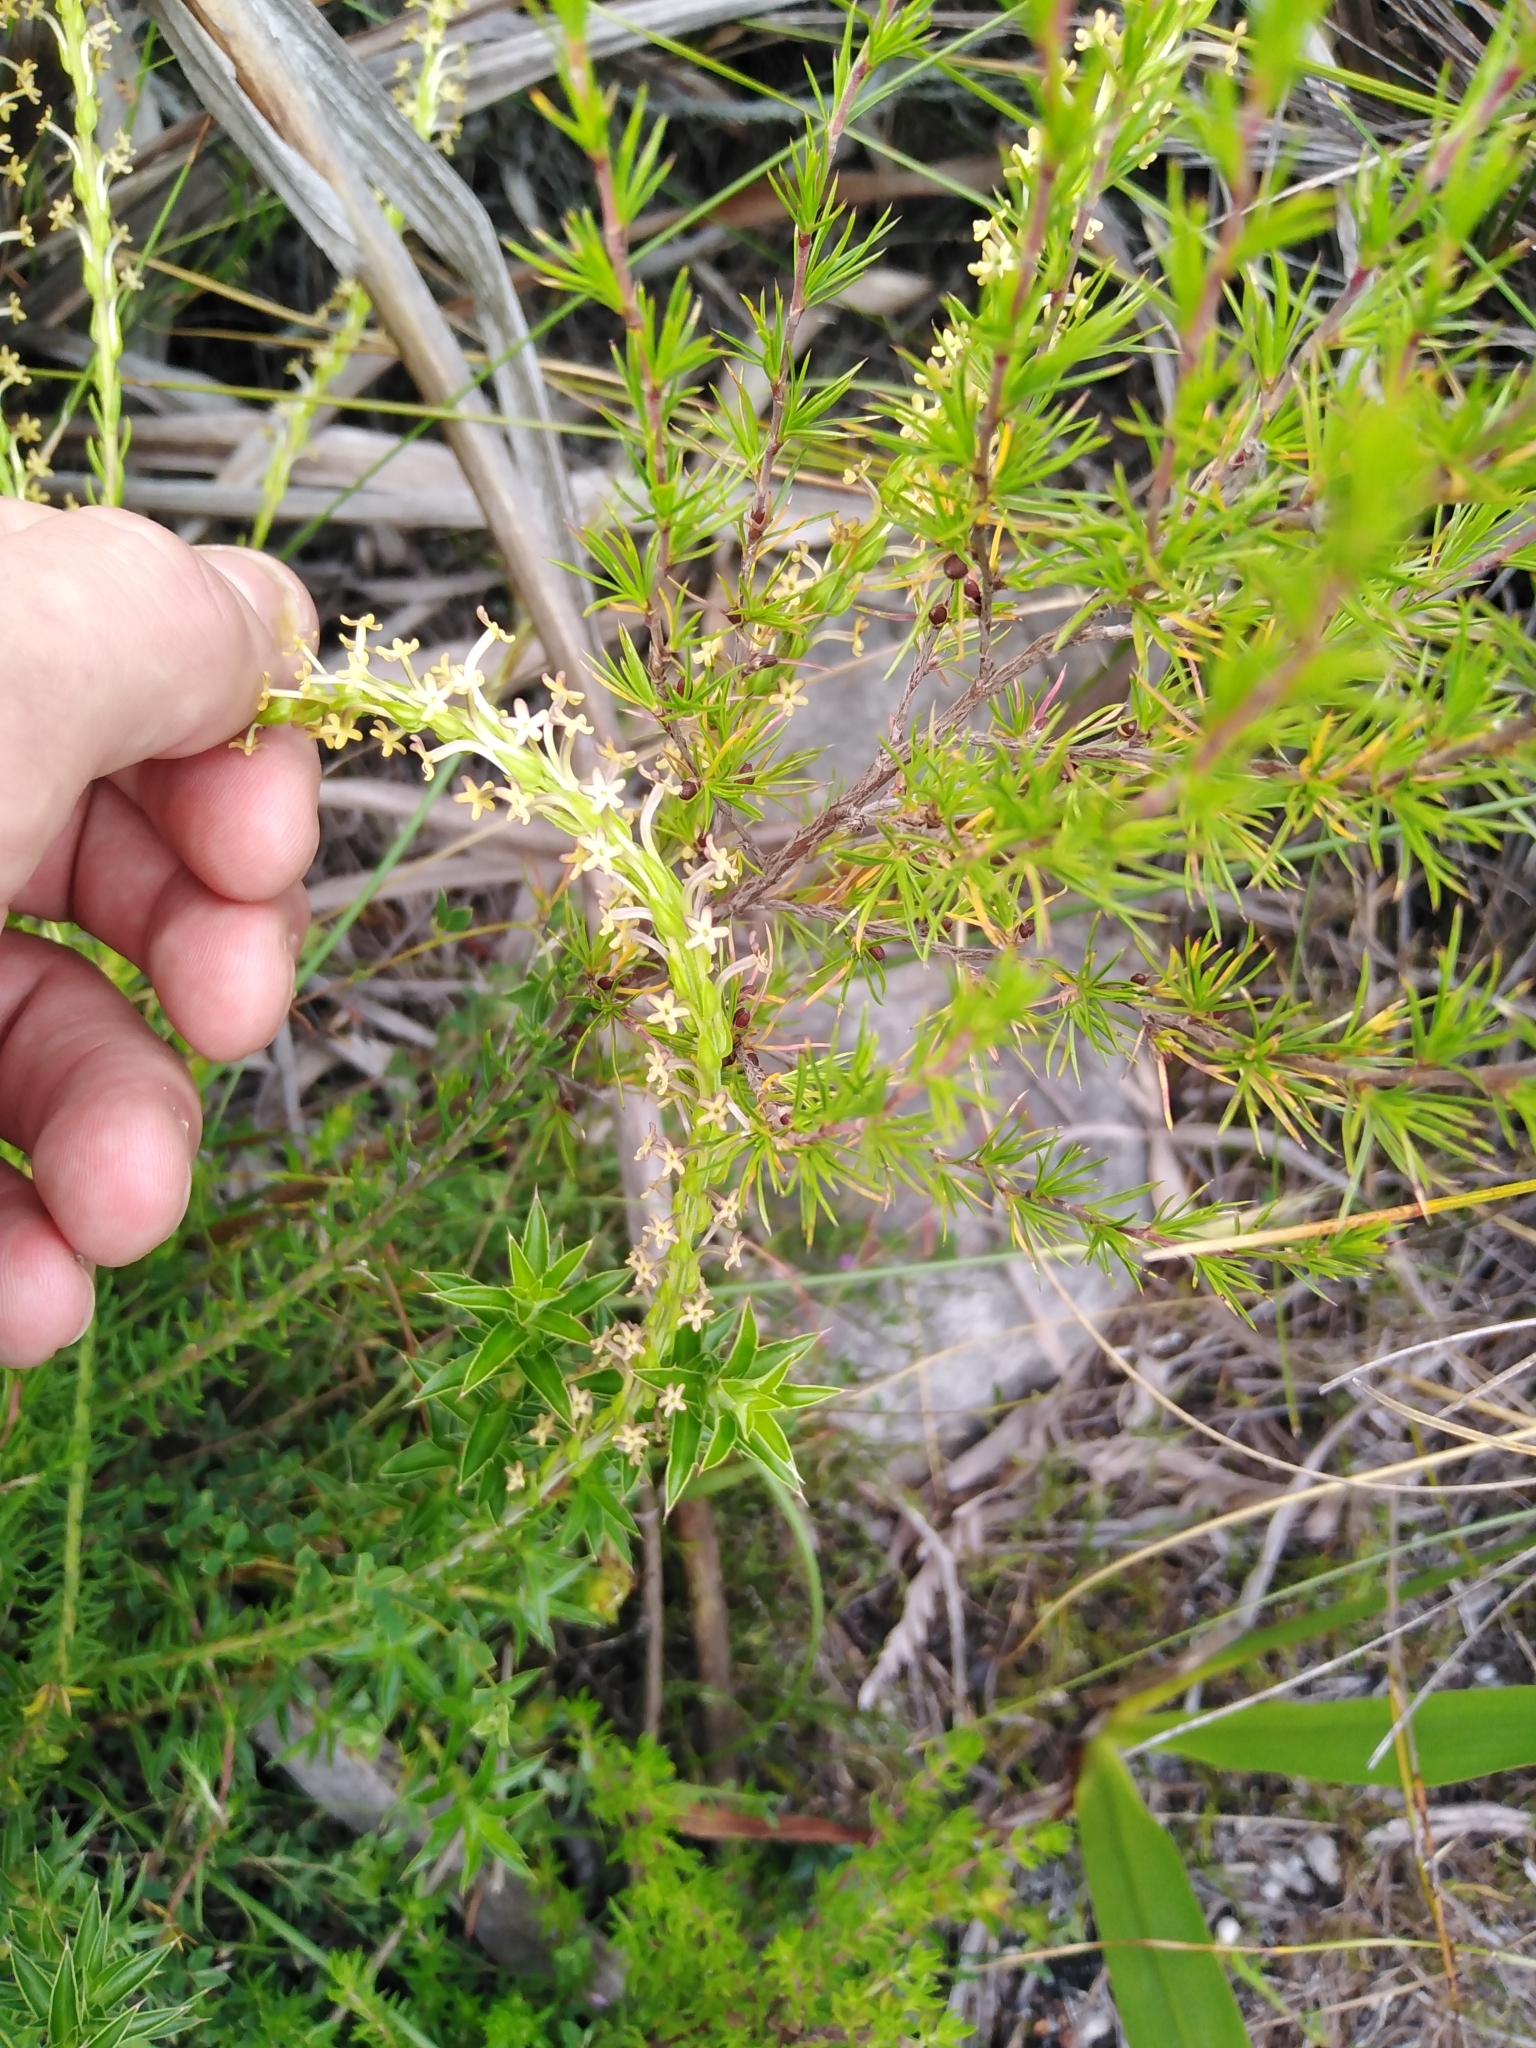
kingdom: Plantae
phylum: Tracheophyta
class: Magnoliopsida
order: Lamiales
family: Scrophulariaceae
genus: Microdon
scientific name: Microdon dubius
